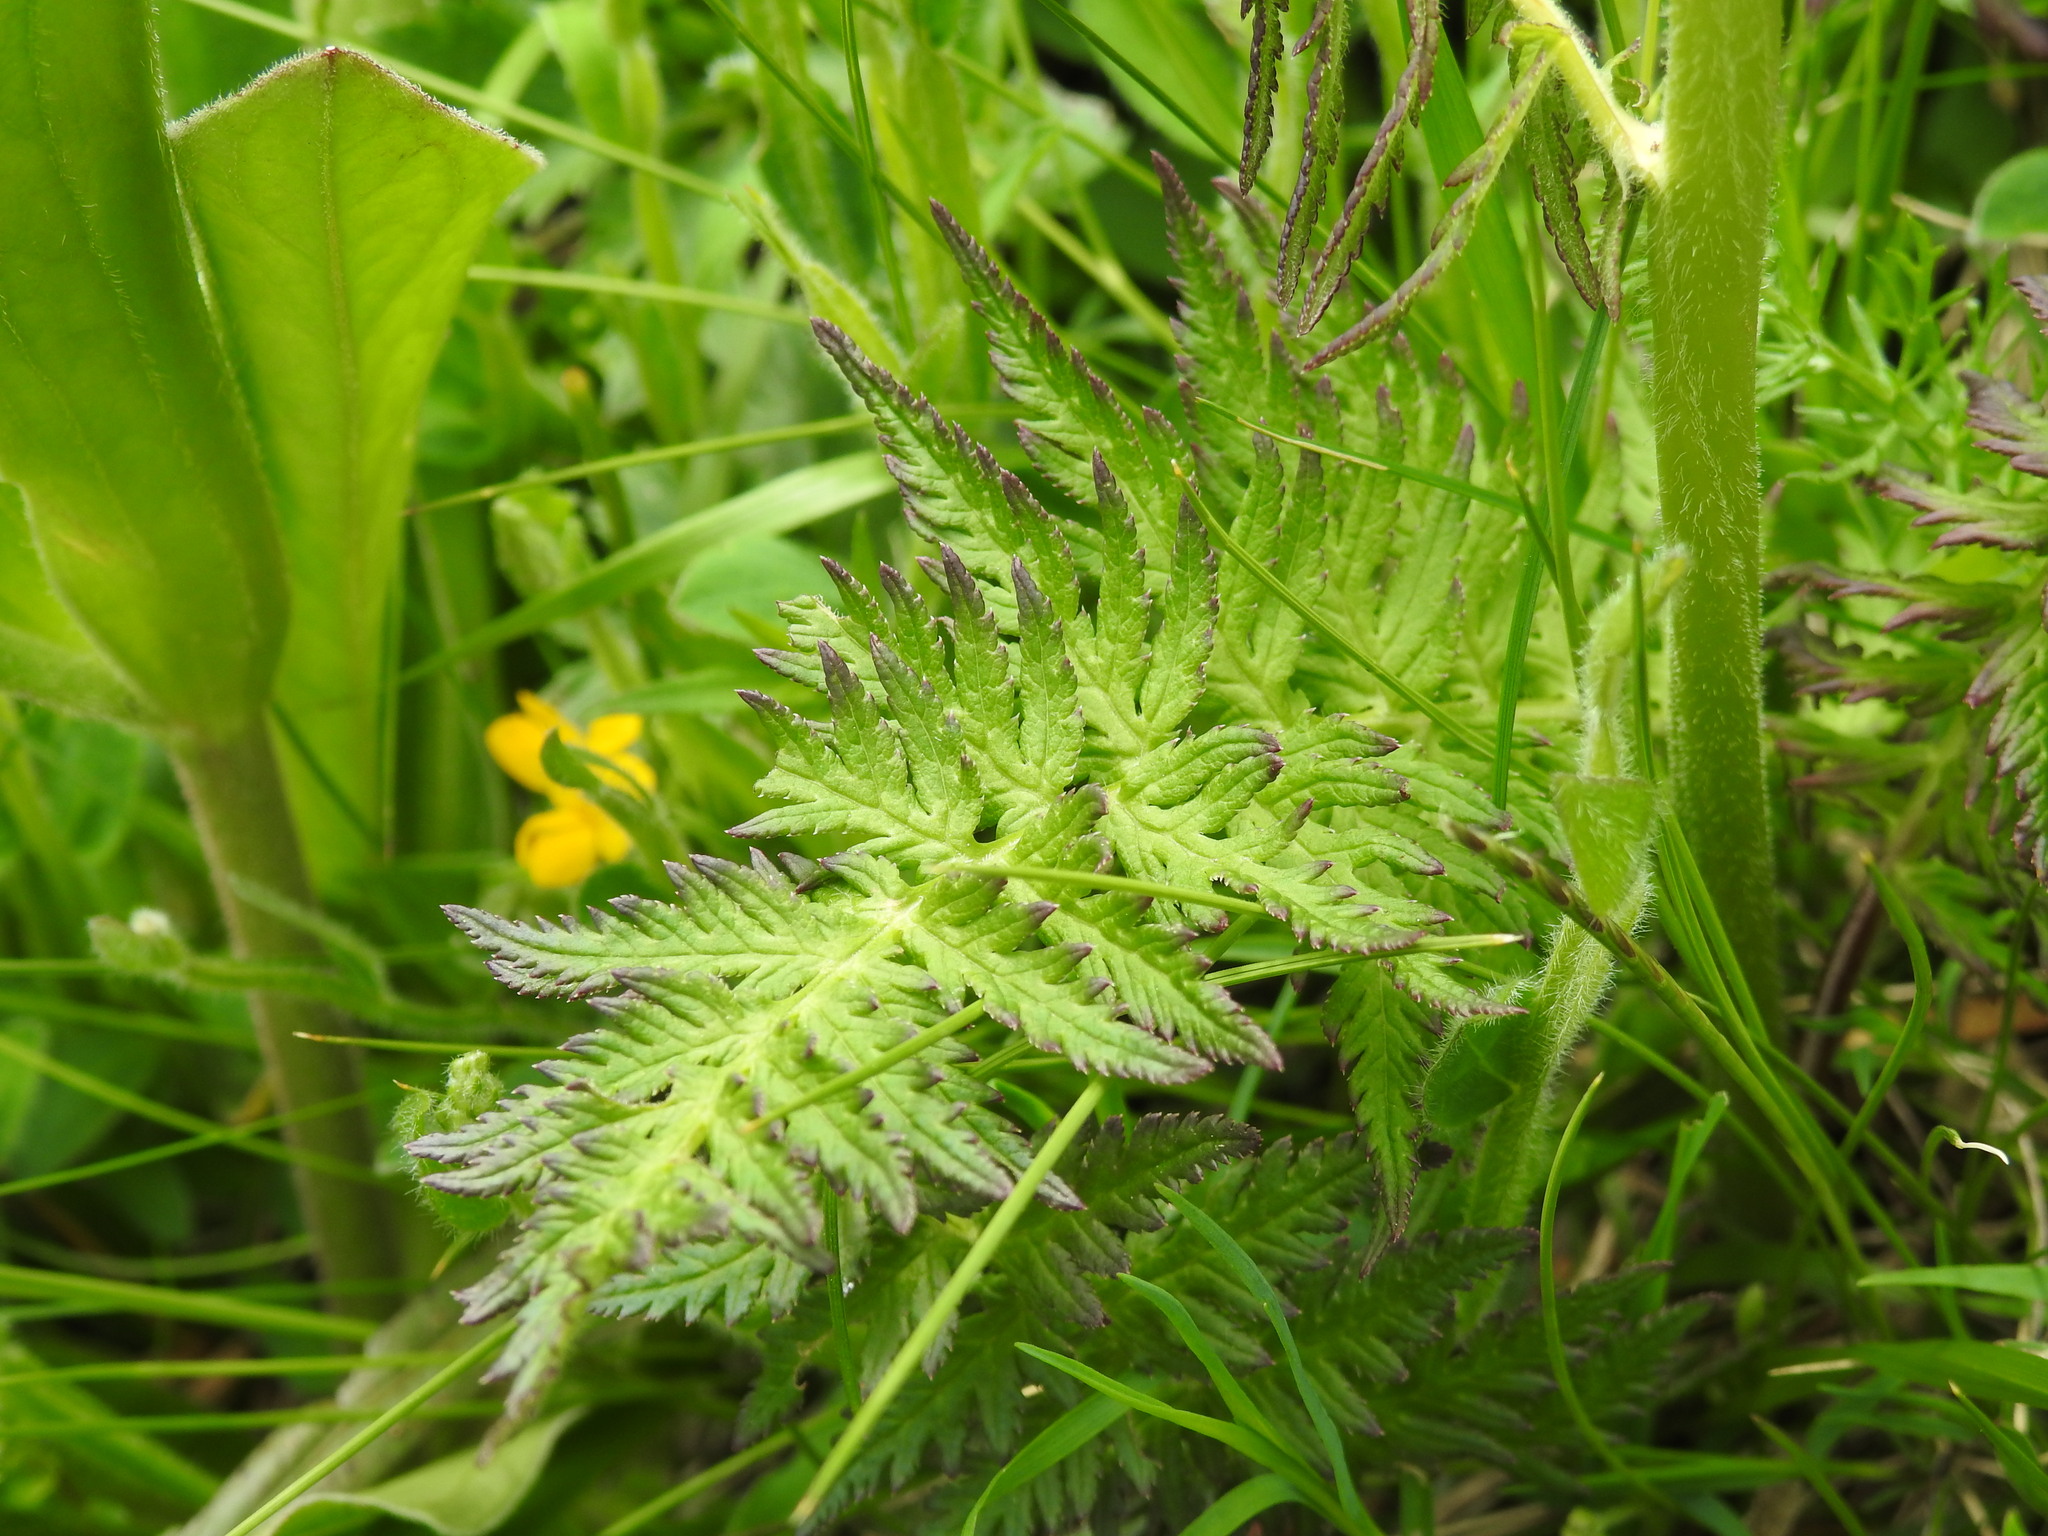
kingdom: Plantae
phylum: Tracheophyta
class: Magnoliopsida
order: Lamiales
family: Orobanchaceae
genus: Pedicularis
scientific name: Pedicularis foliosa
